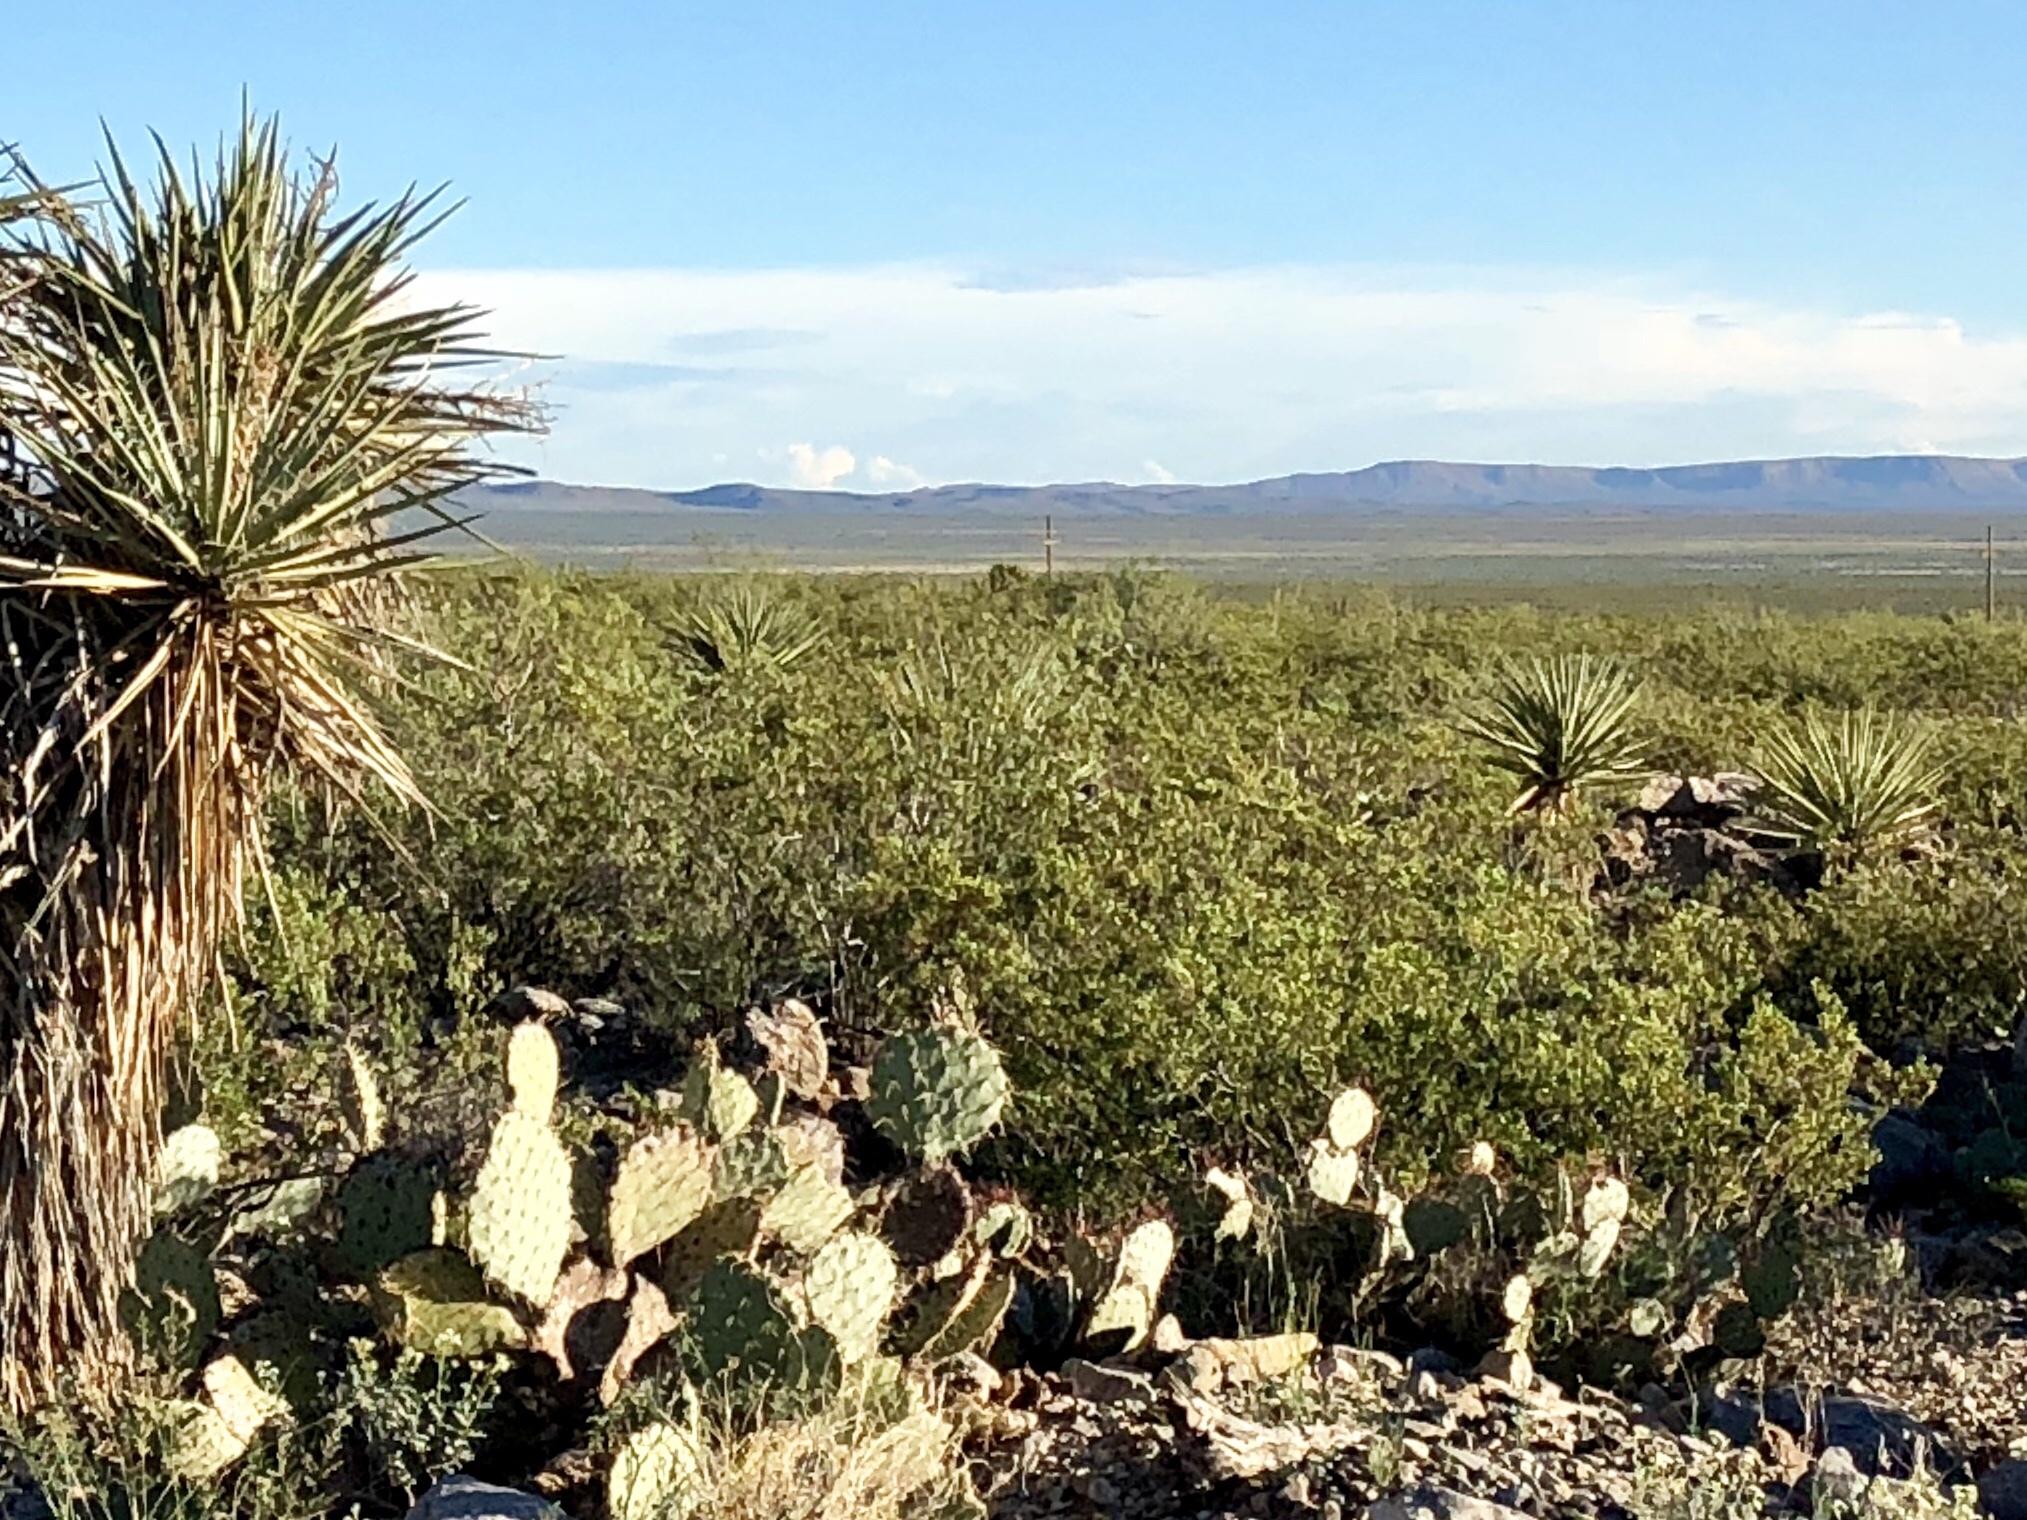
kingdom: Plantae
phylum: Tracheophyta
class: Magnoliopsida
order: Zygophyllales
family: Zygophyllaceae
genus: Larrea
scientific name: Larrea tridentata
